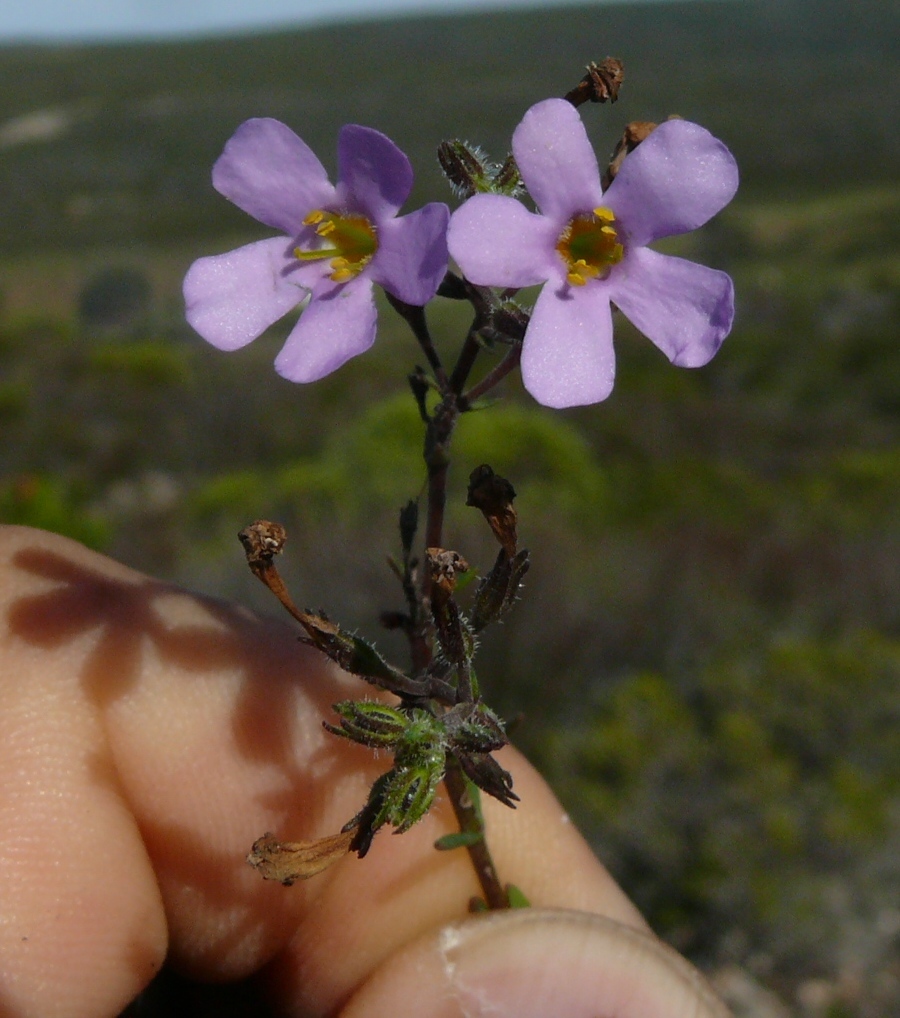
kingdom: Plantae
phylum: Tracheophyta
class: Magnoliopsida
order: Lamiales
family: Scrophulariaceae
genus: Chaenostoma
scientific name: Chaenostoma revolutum
